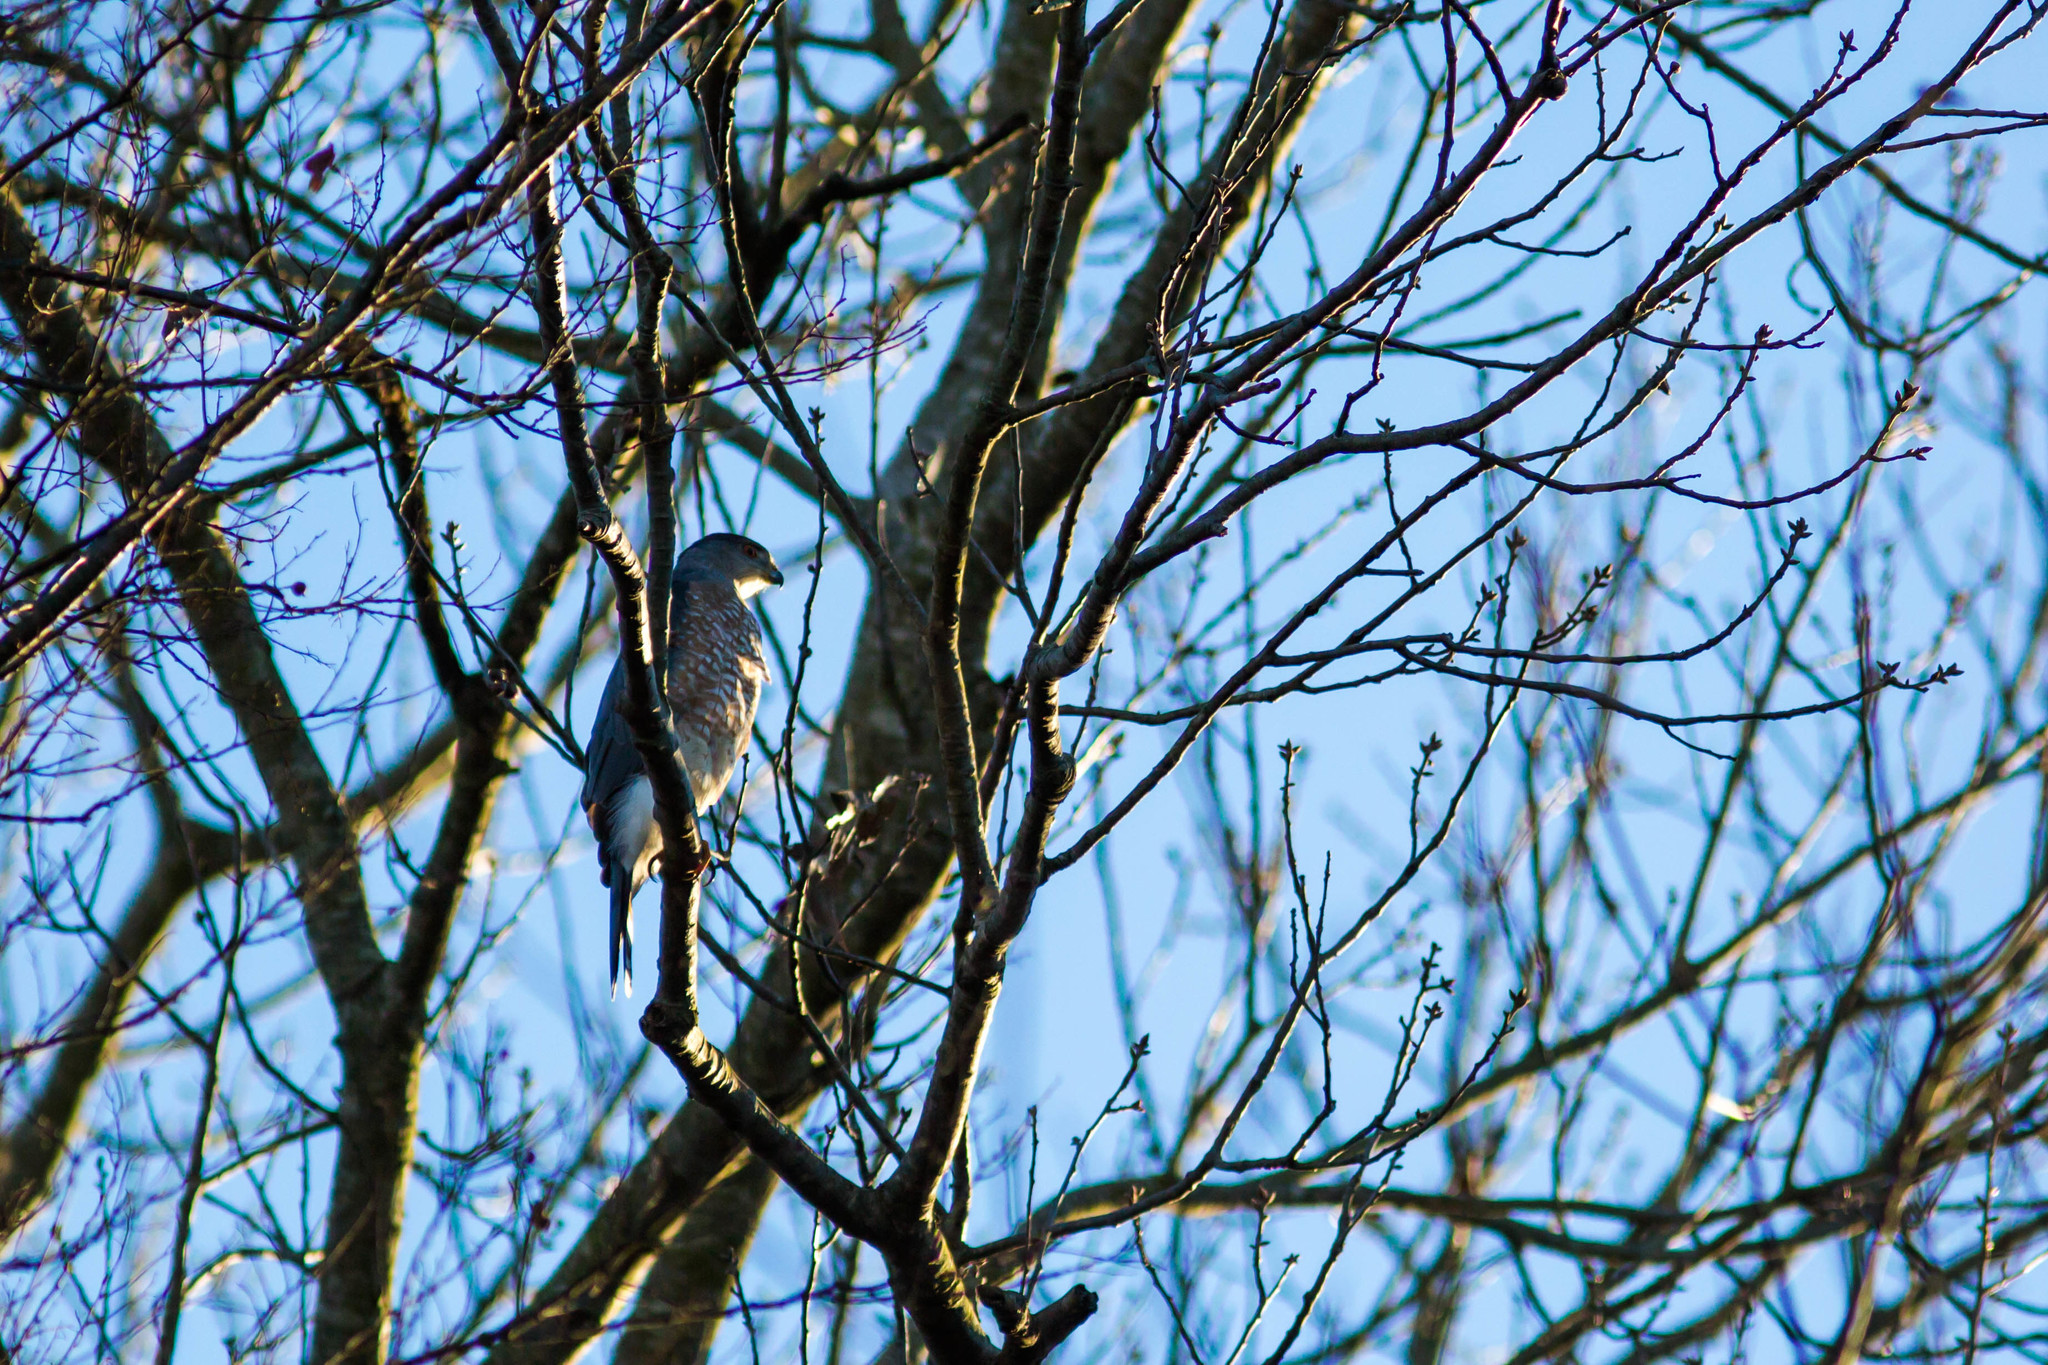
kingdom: Animalia
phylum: Chordata
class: Aves
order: Accipitriformes
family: Accipitridae
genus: Accipiter
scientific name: Accipiter cooperii
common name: Cooper's hawk
